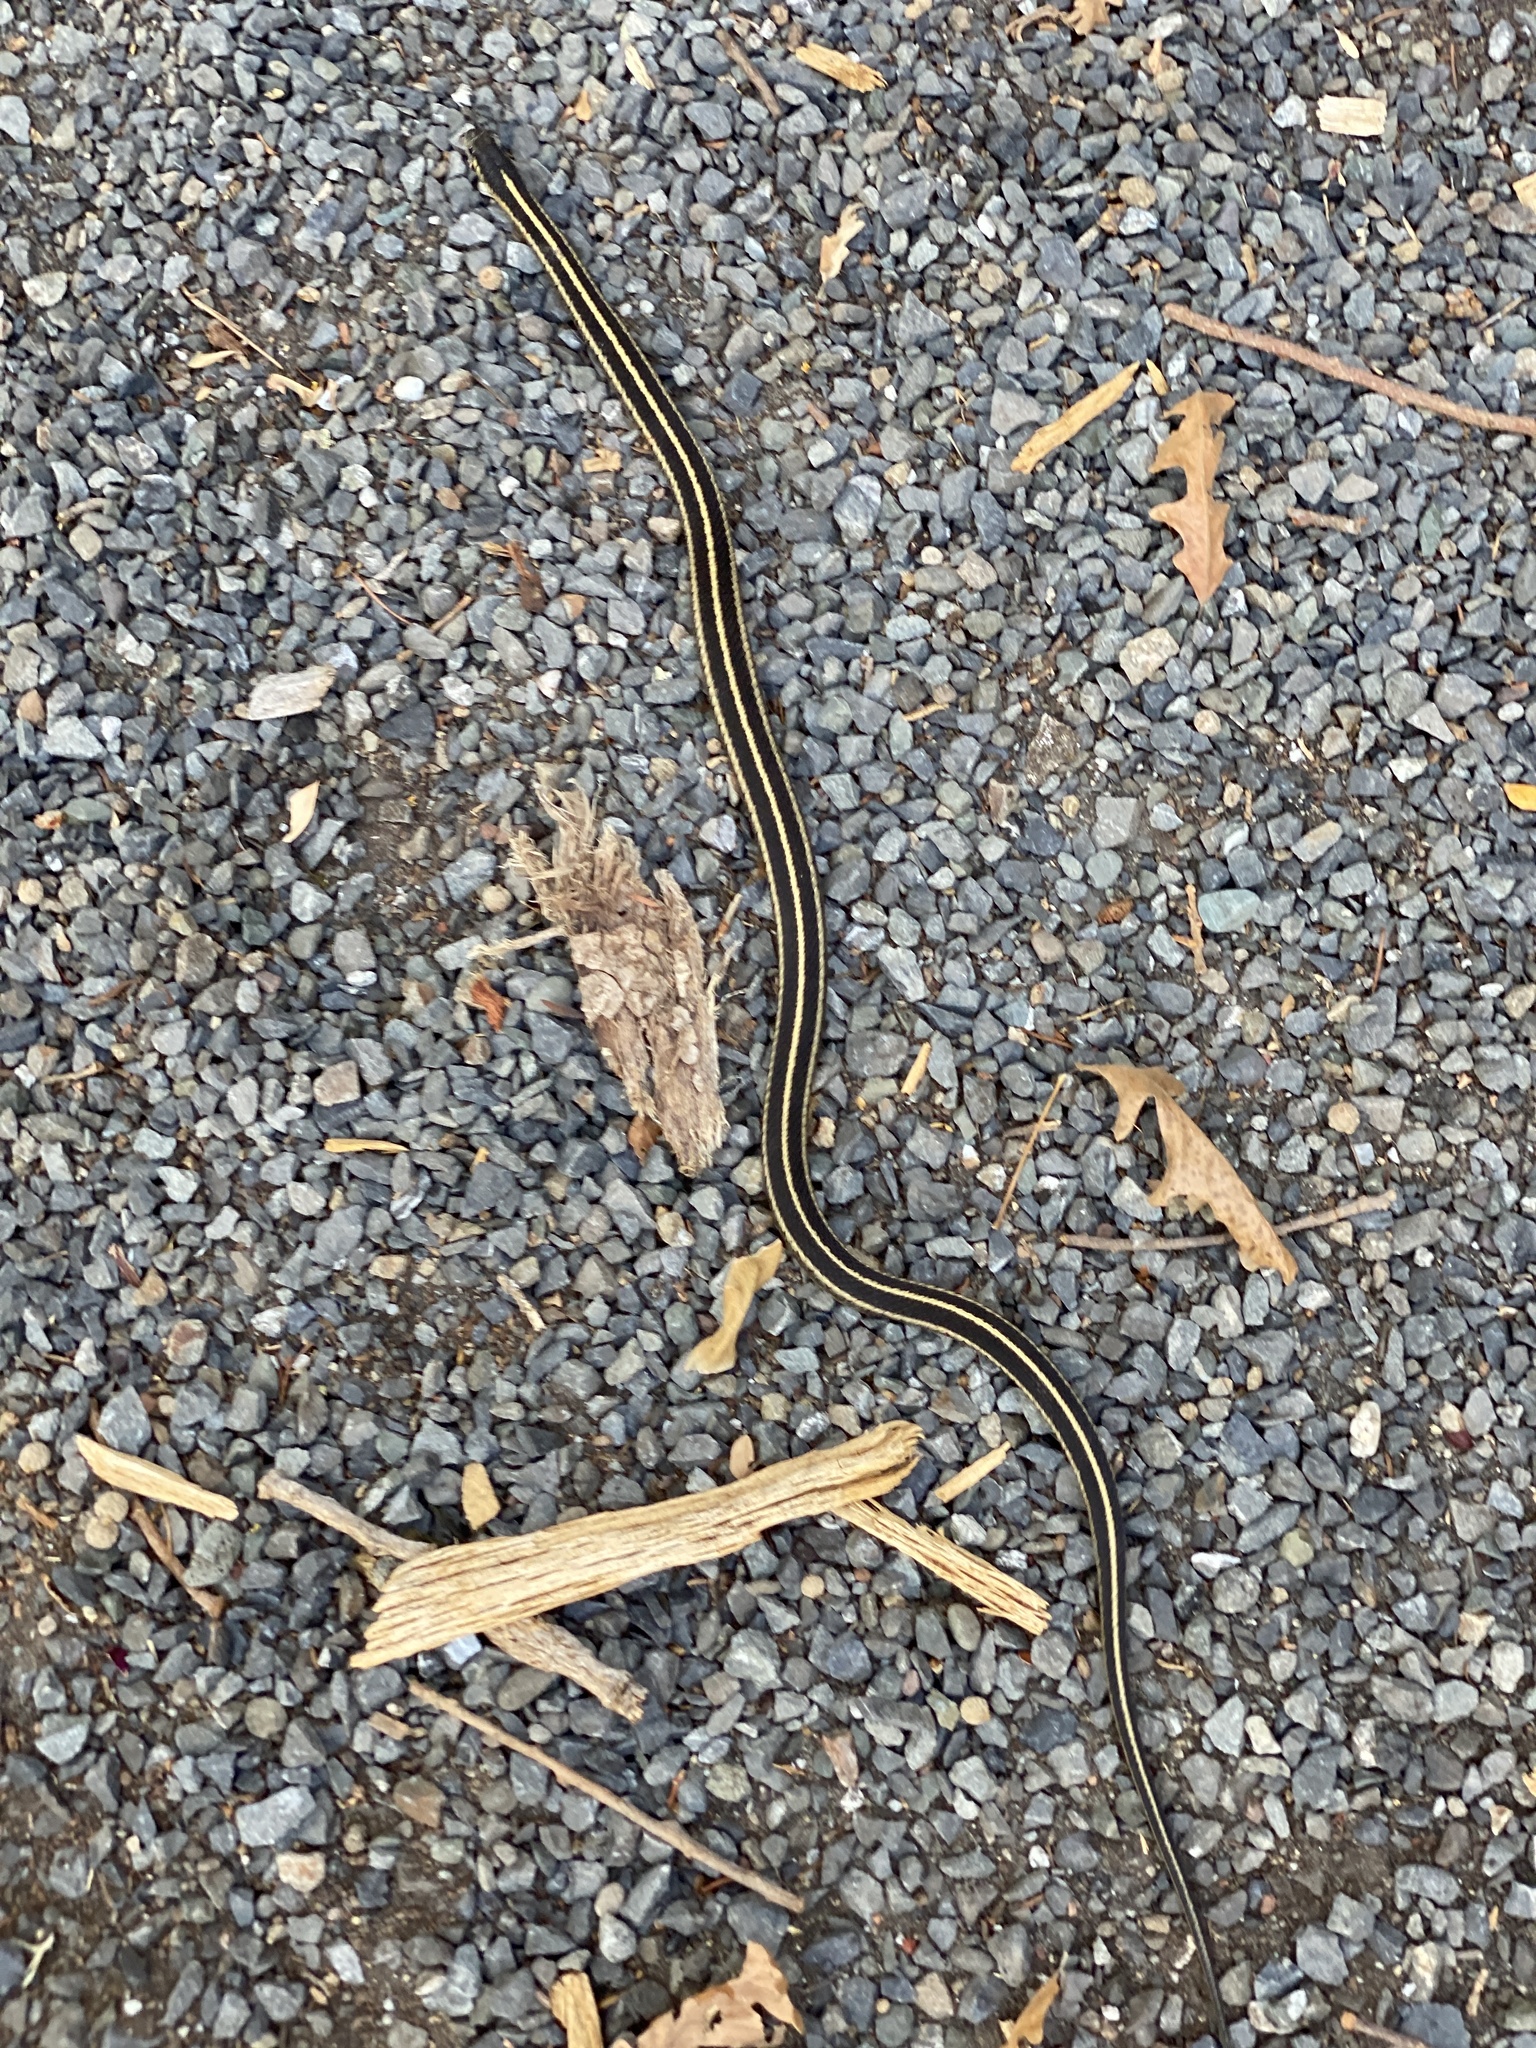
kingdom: Animalia
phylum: Chordata
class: Squamata
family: Colubridae
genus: Thamnophis
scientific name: Thamnophis elegans
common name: Western terrestrial garter snake
